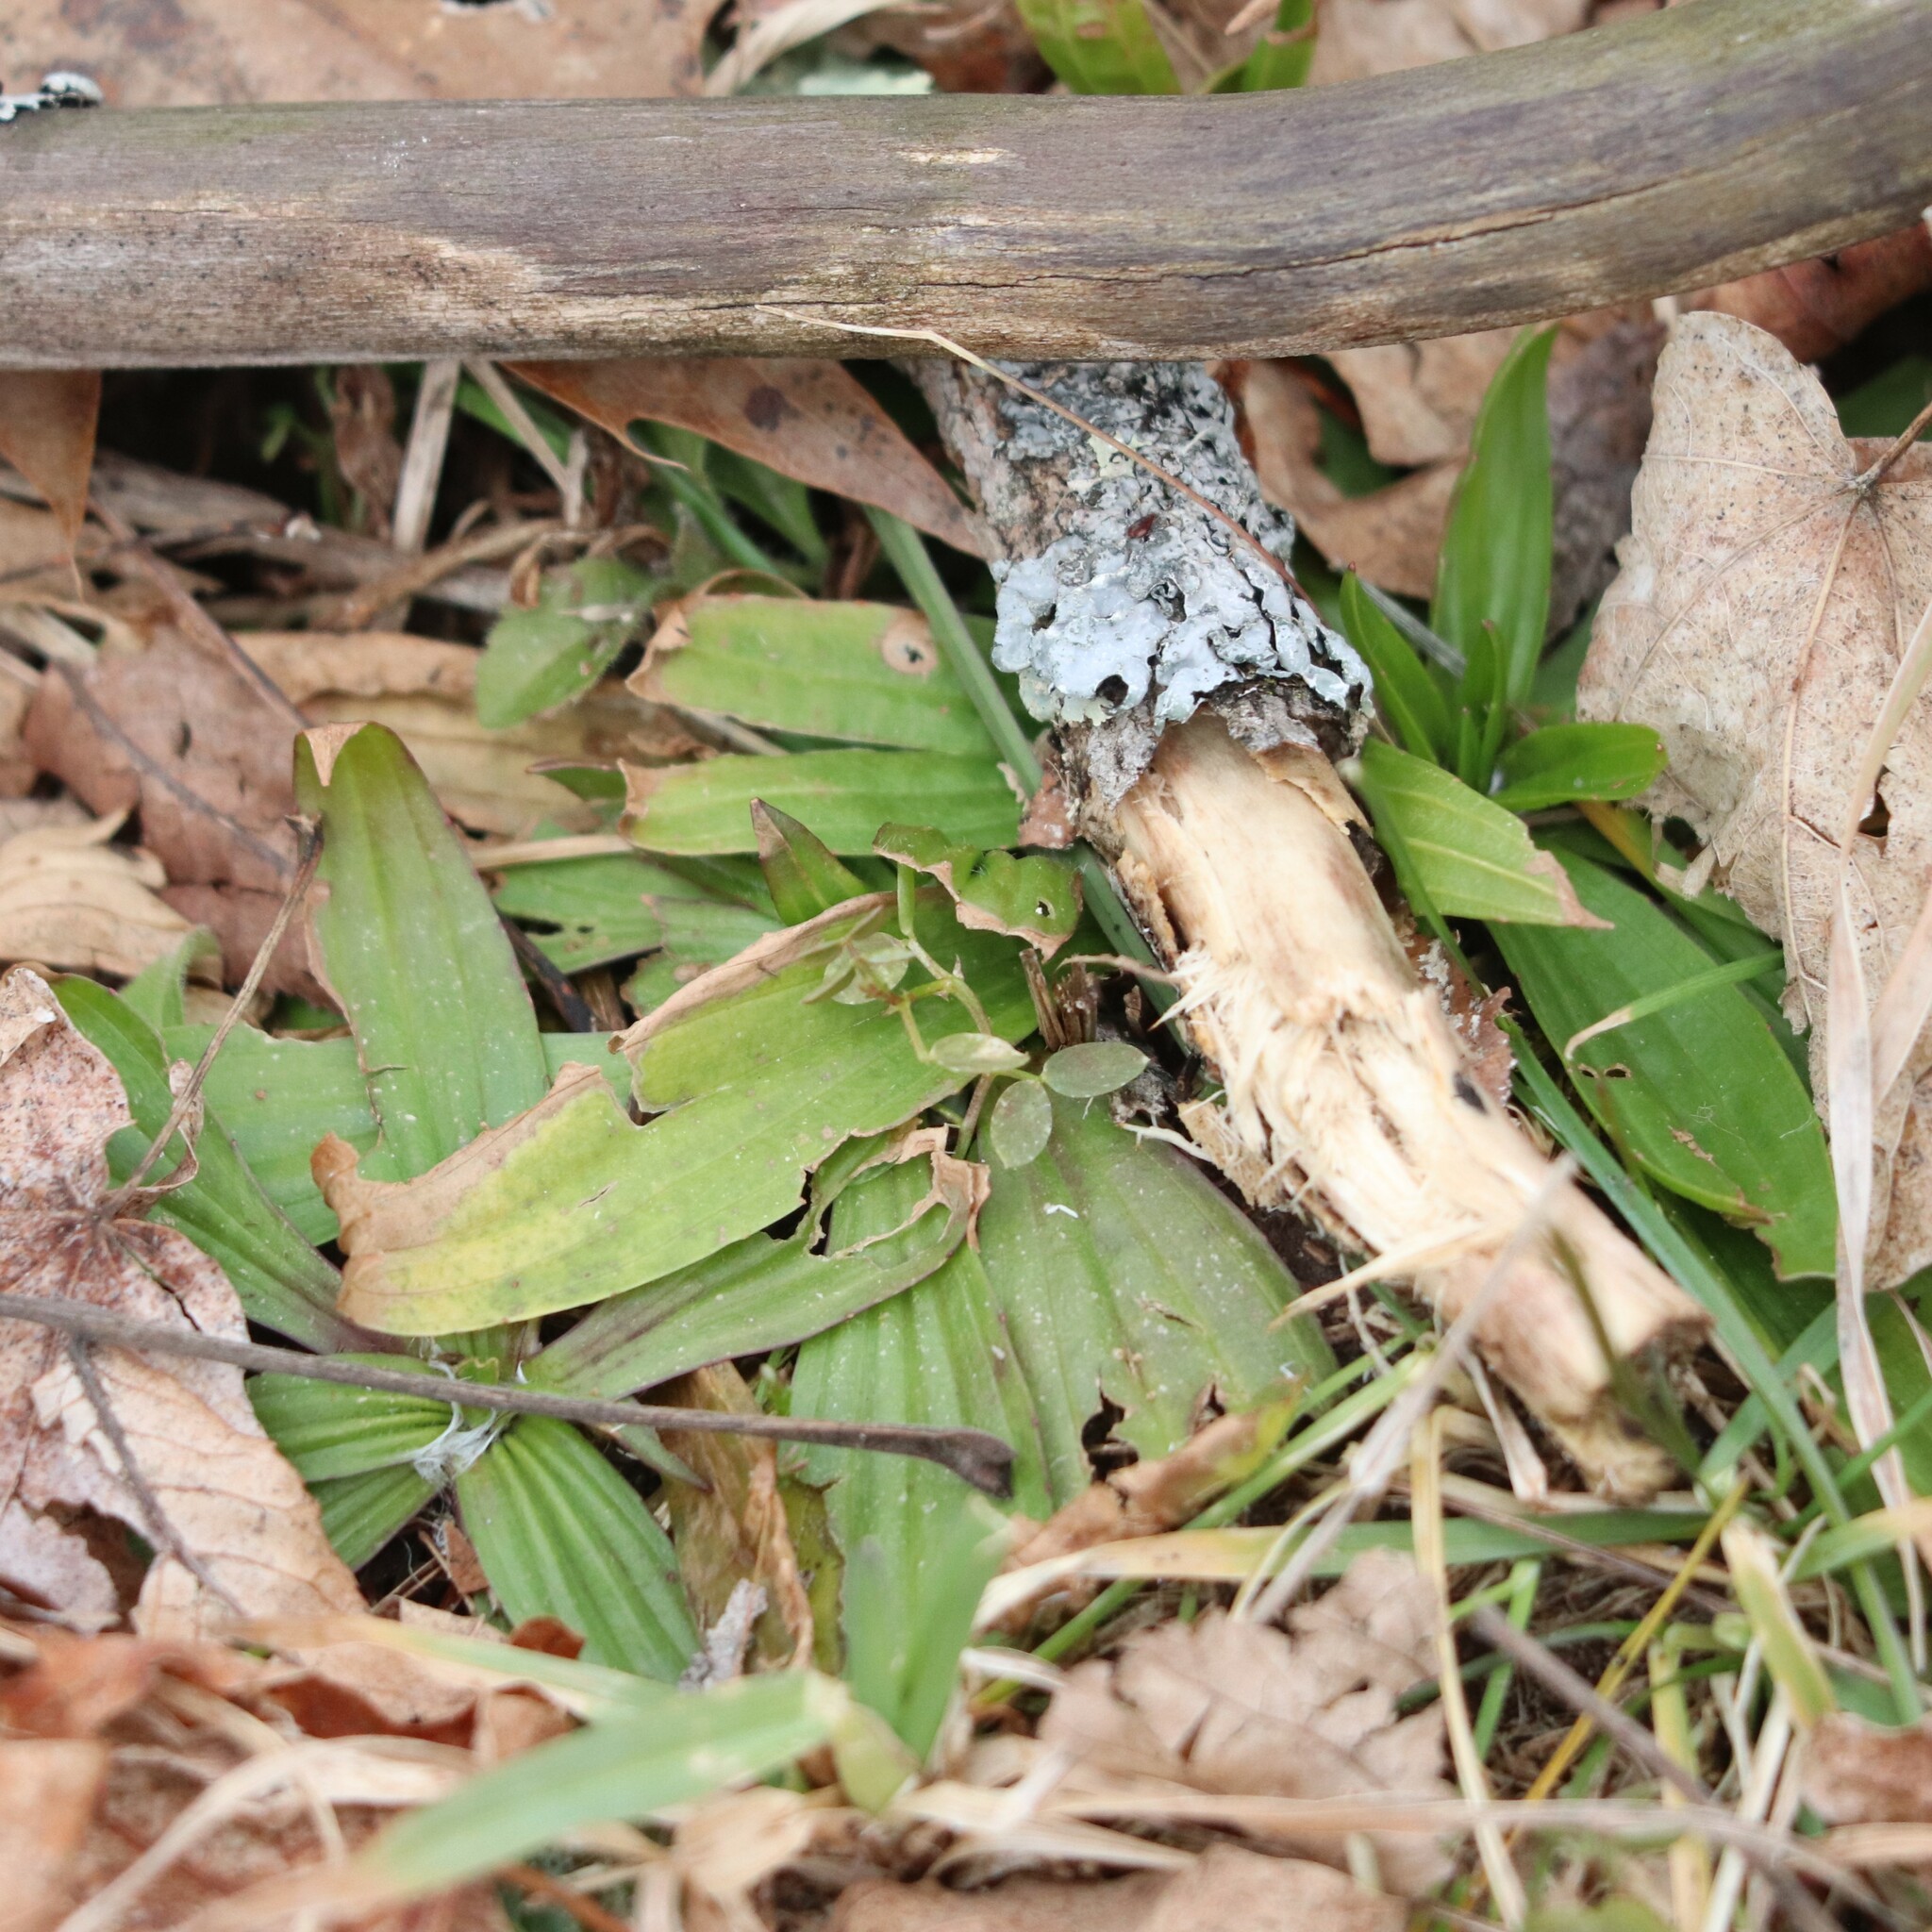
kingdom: Plantae
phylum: Tracheophyta
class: Magnoliopsida
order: Lamiales
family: Plantaginaceae
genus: Plantago
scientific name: Plantago lanceolata
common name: Ribwort plantain
